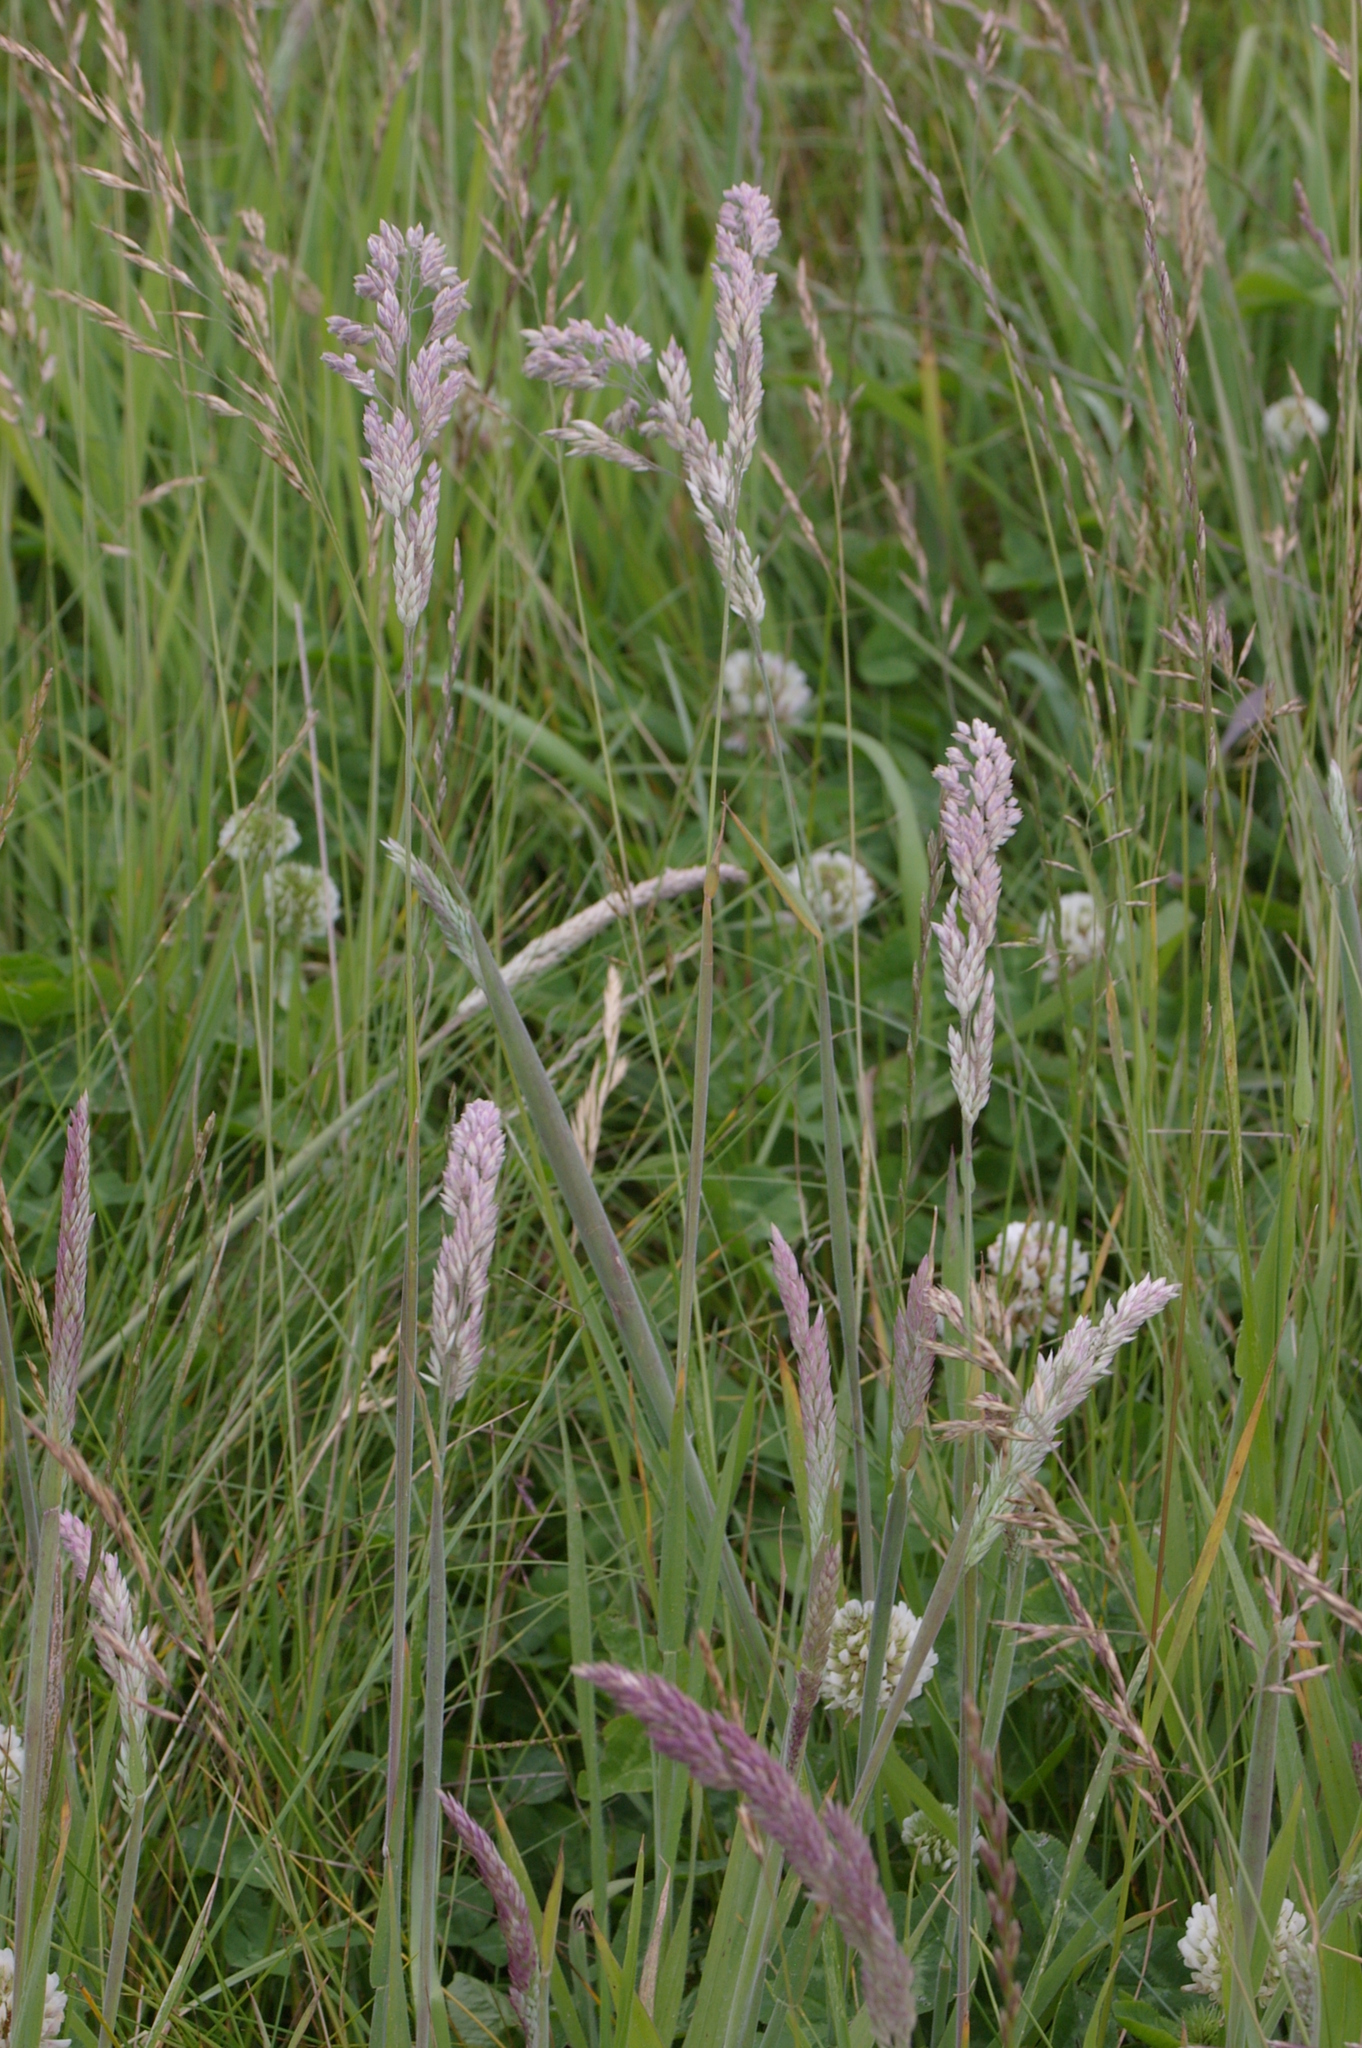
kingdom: Plantae
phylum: Tracheophyta
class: Liliopsida
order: Poales
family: Poaceae
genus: Holcus
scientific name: Holcus lanatus
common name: Yorkshire-fog
